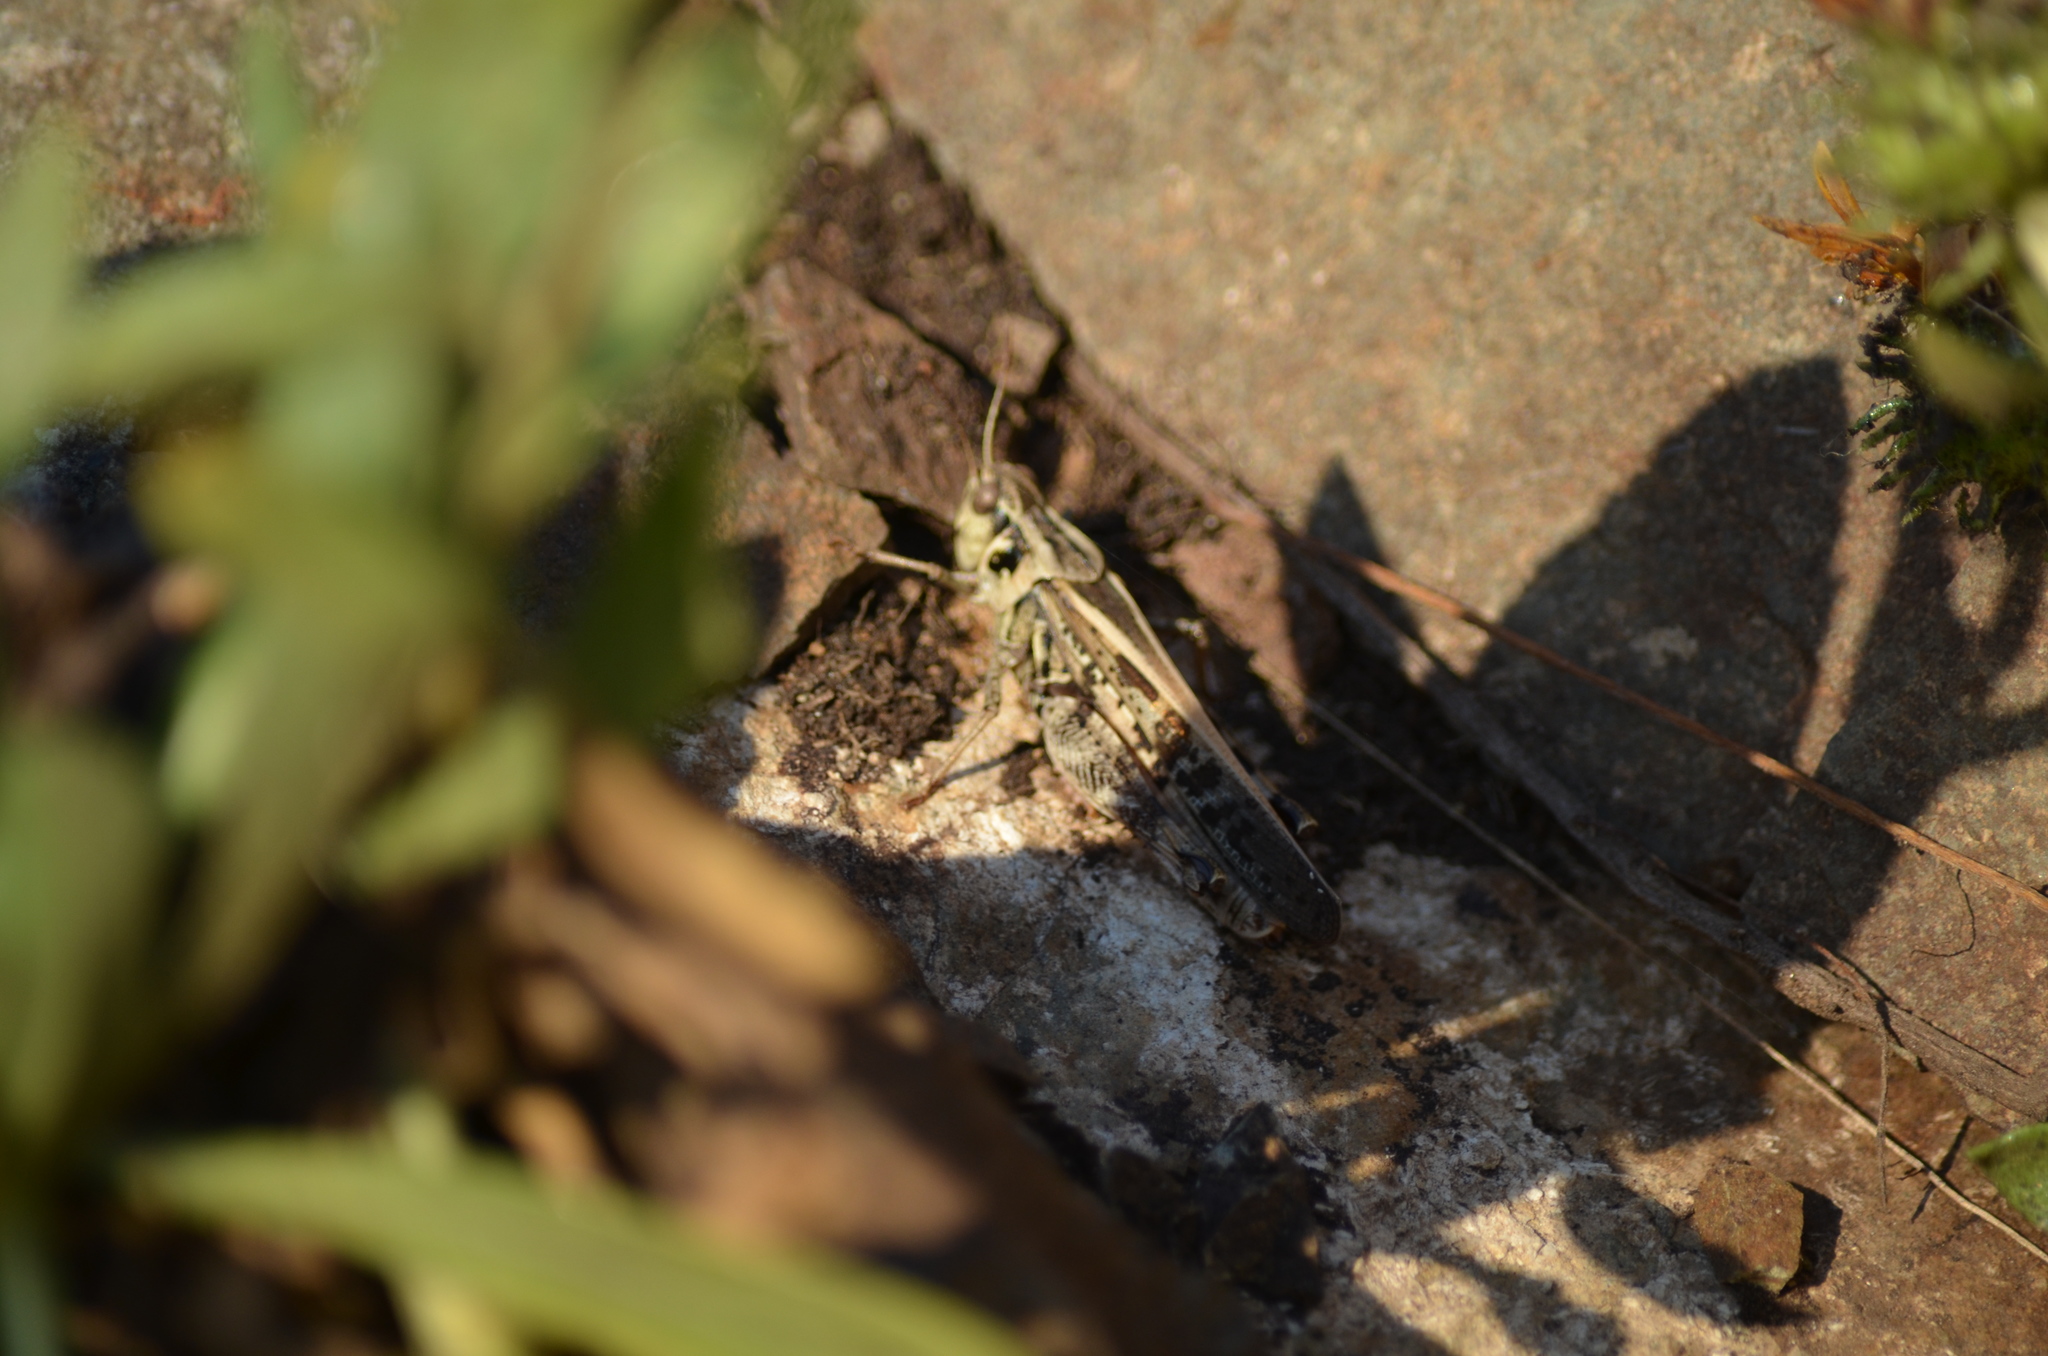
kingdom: Animalia
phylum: Arthropoda
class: Insecta
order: Orthoptera
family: Acrididae
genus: Camnula
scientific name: Camnula pellucida
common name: Clear-winged grasshopper
